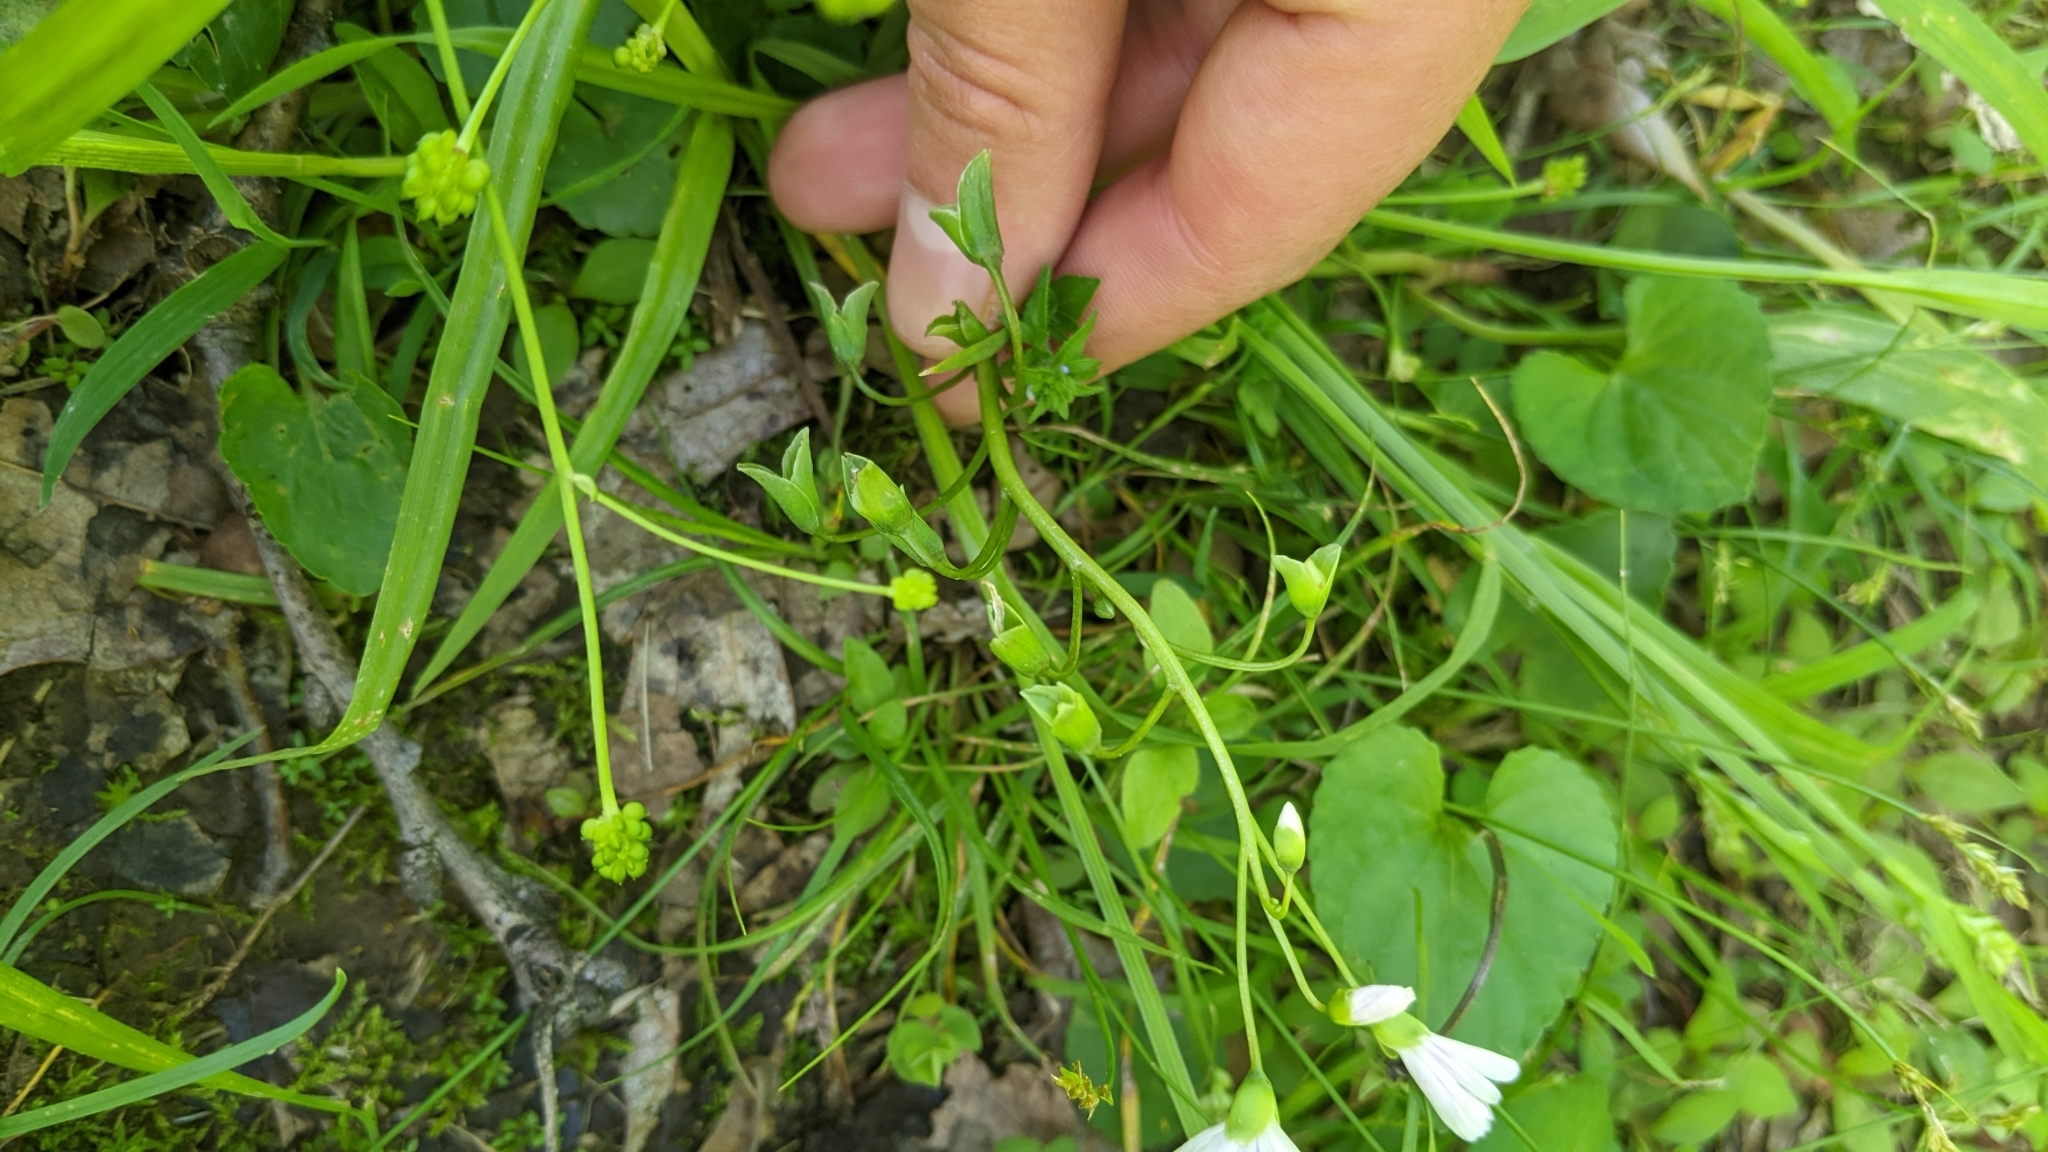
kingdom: Plantae
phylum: Tracheophyta
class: Magnoliopsida
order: Caryophyllales
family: Montiaceae
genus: Claytonia
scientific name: Claytonia virginica
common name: Virginia springbeauty
